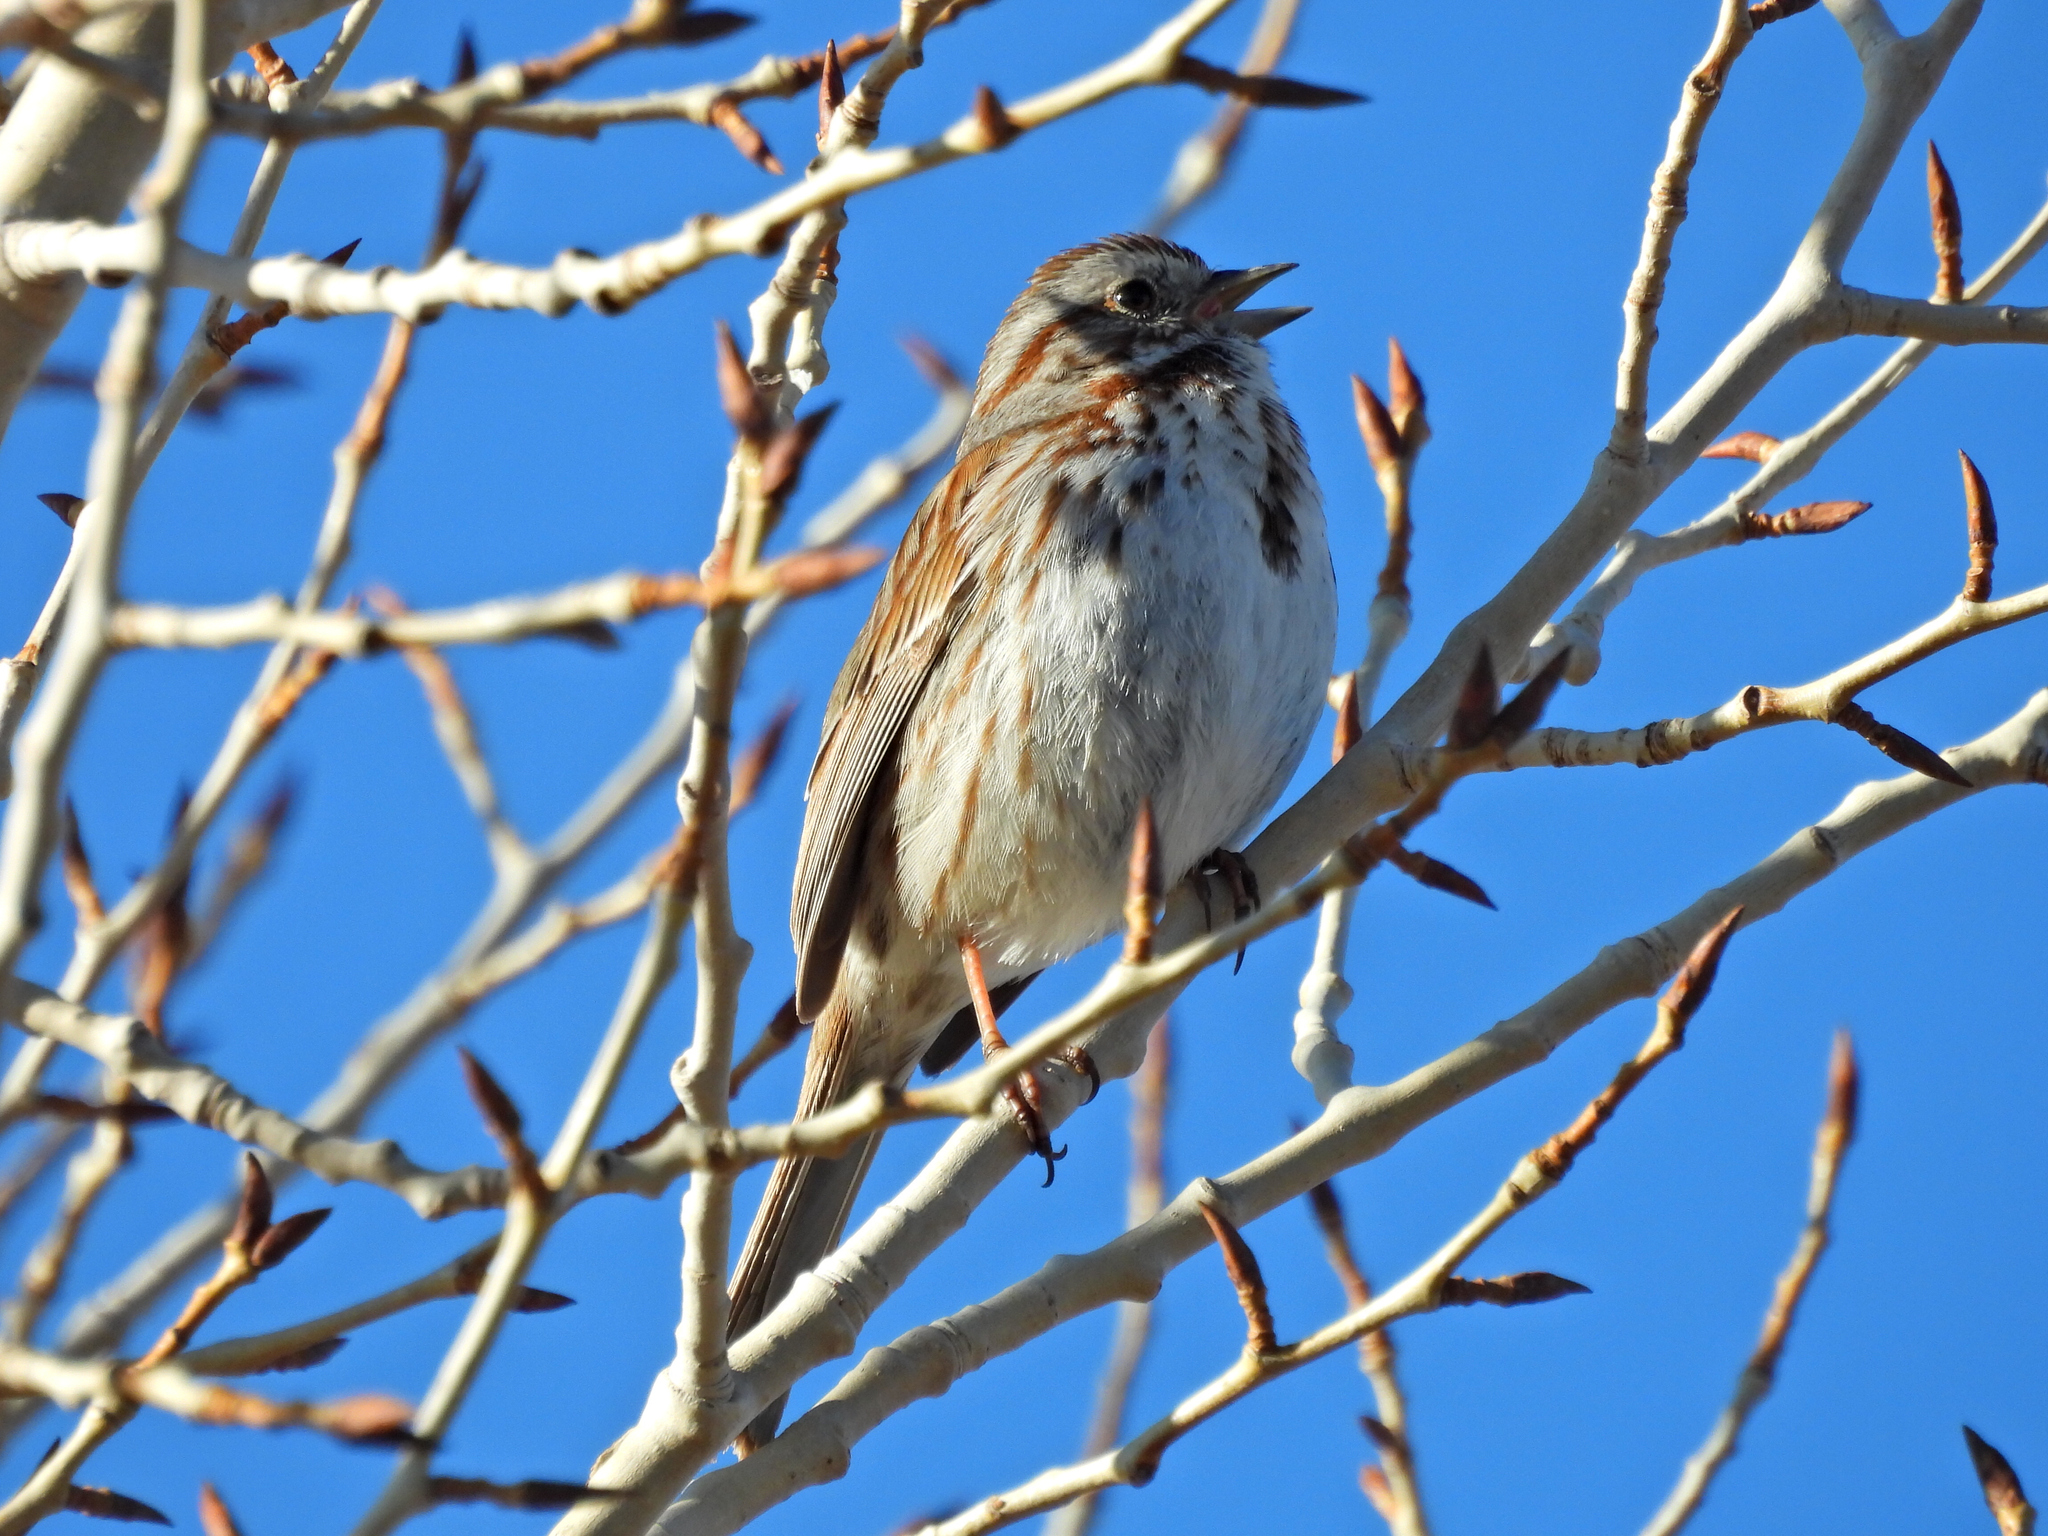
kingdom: Animalia
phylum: Chordata
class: Aves
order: Passeriformes
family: Passerellidae
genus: Melospiza
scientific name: Melospiza melodia
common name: Song sparrow
